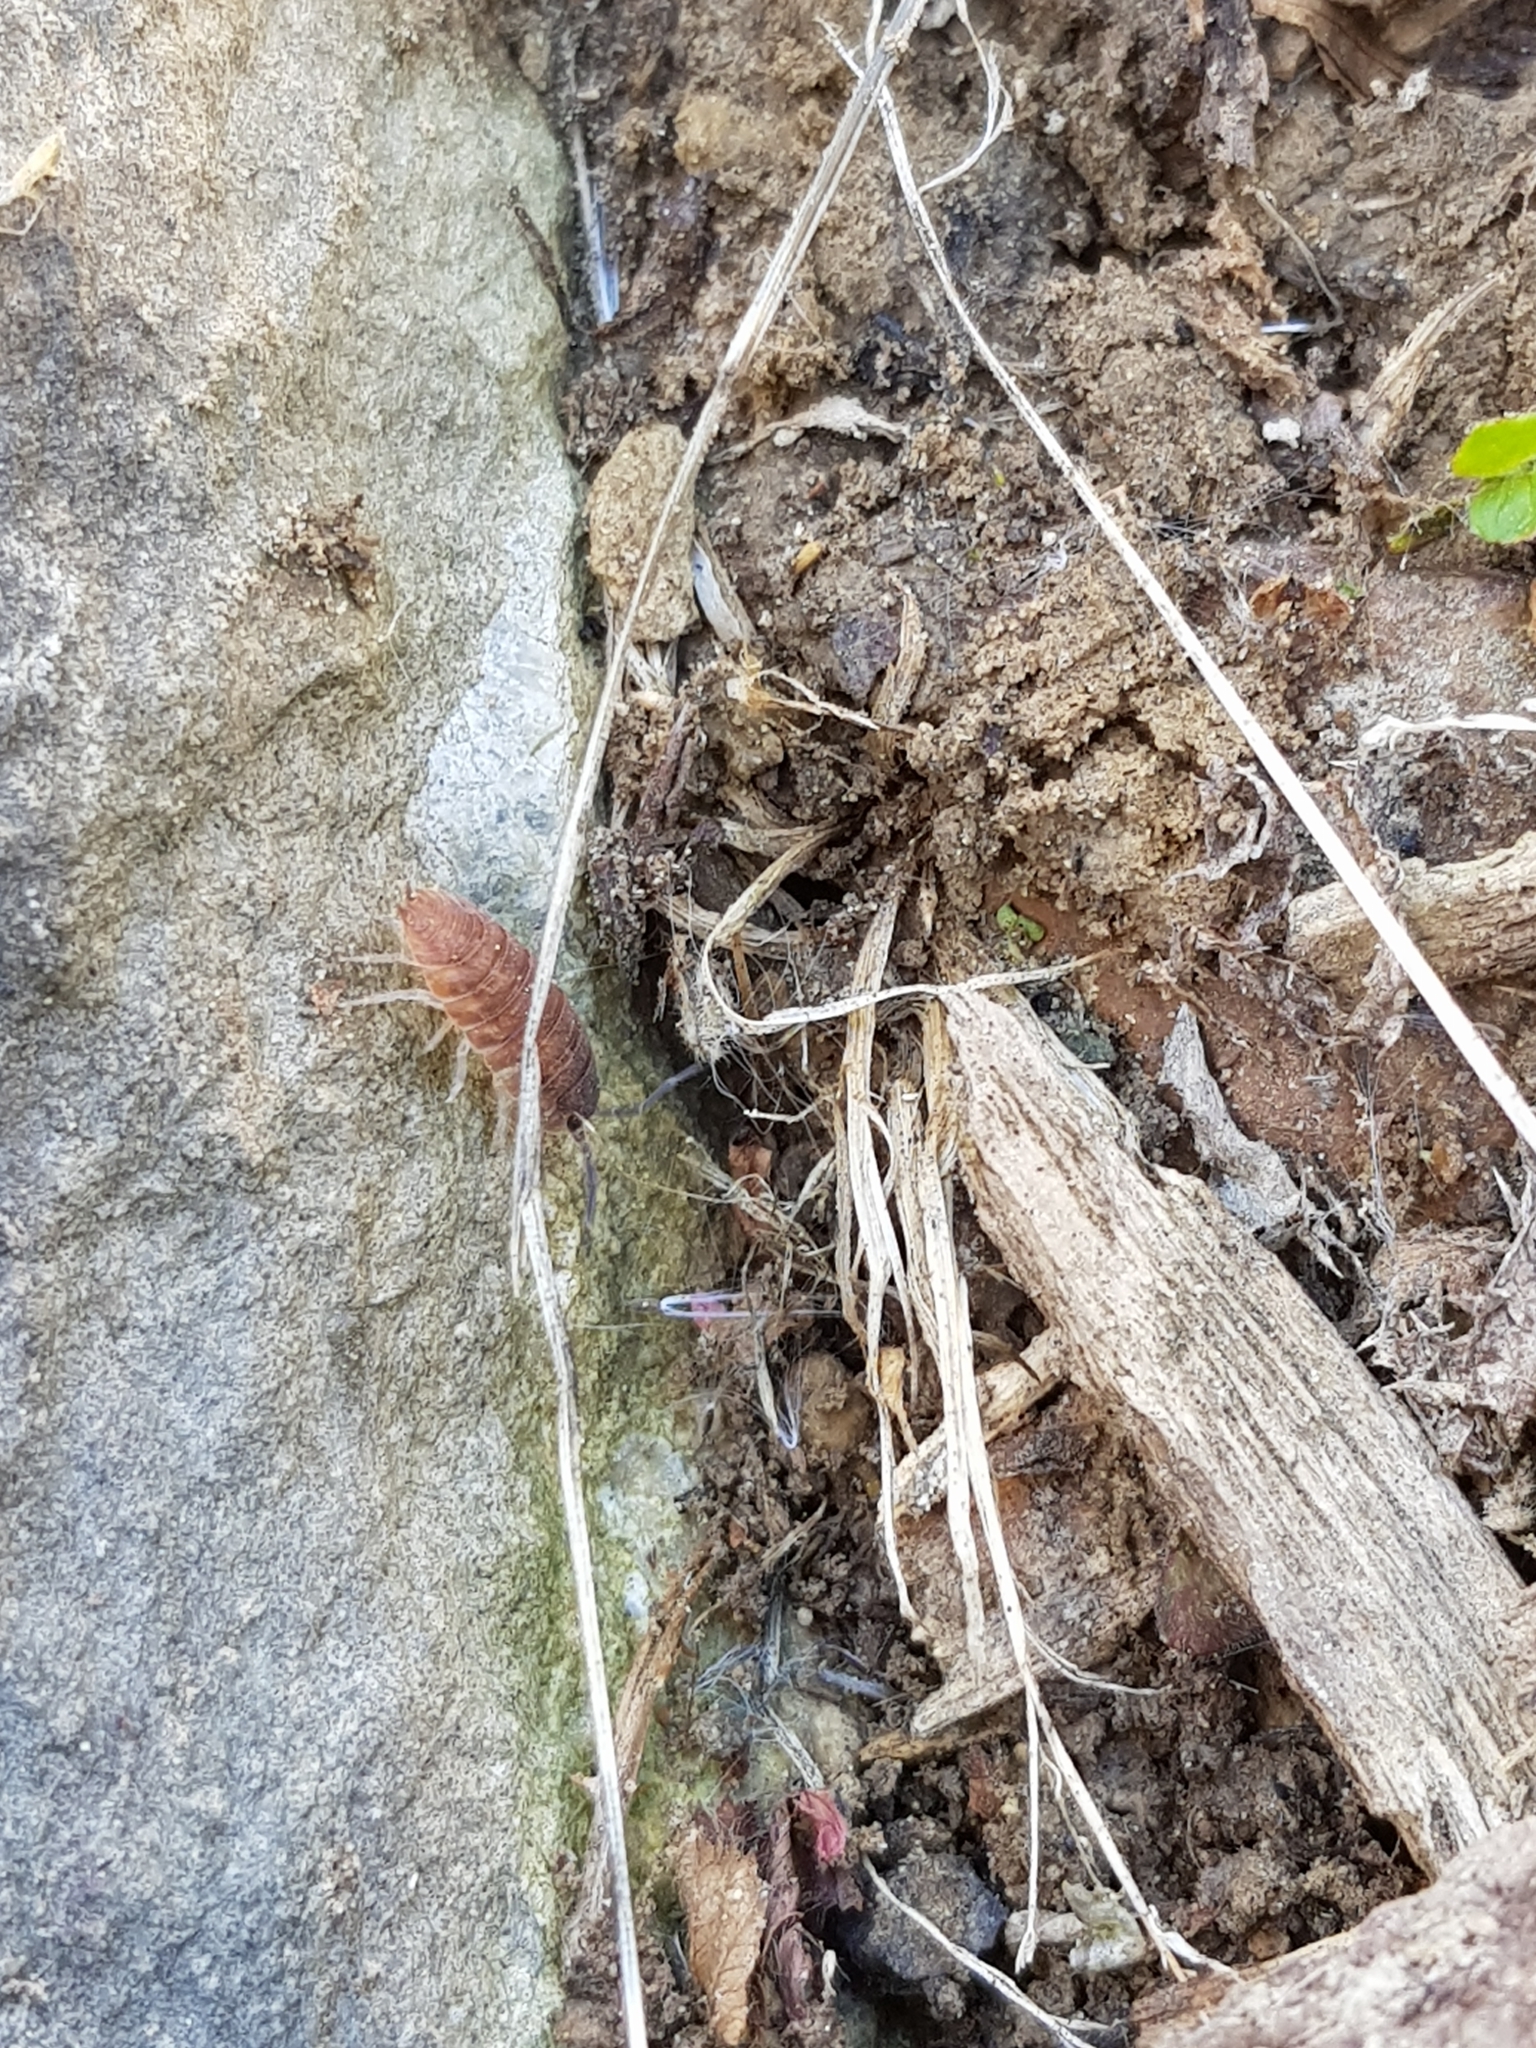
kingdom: Animalia
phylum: Arthropoda
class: Malacostraca
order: Isopoda
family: Porcellionidae
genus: Porcellio
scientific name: Porcellio scaber
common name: Common rough woodlouse
